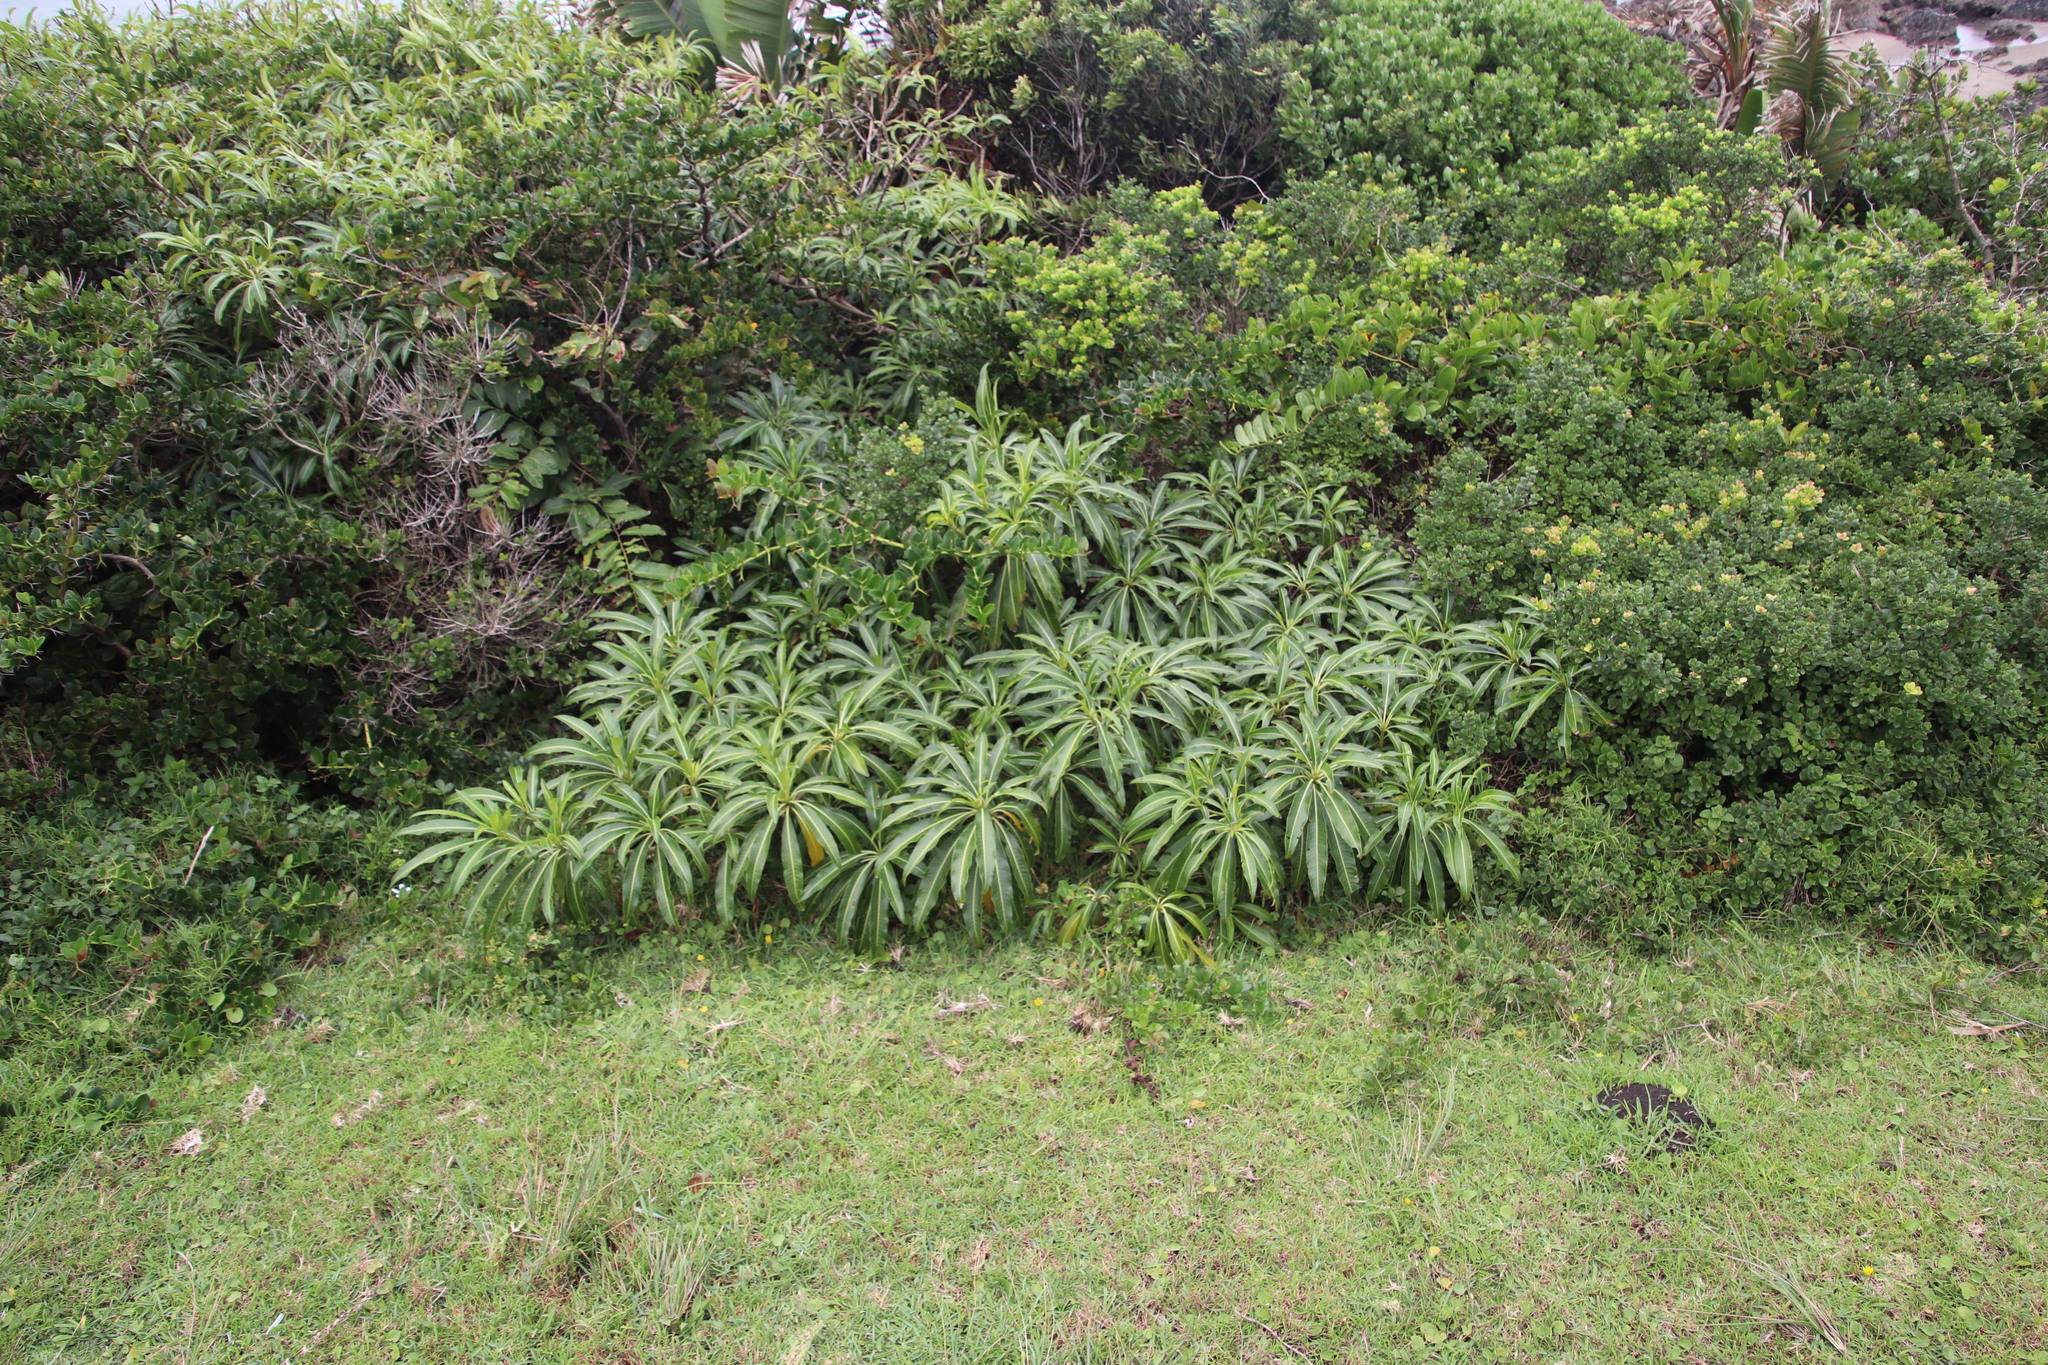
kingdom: Plantae
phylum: Tracheophyta
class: Magnoliopsida
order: Gentianales
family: Apocynaceae
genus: Rauvolfia
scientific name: Rauvolfia caffra
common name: Quininetree
